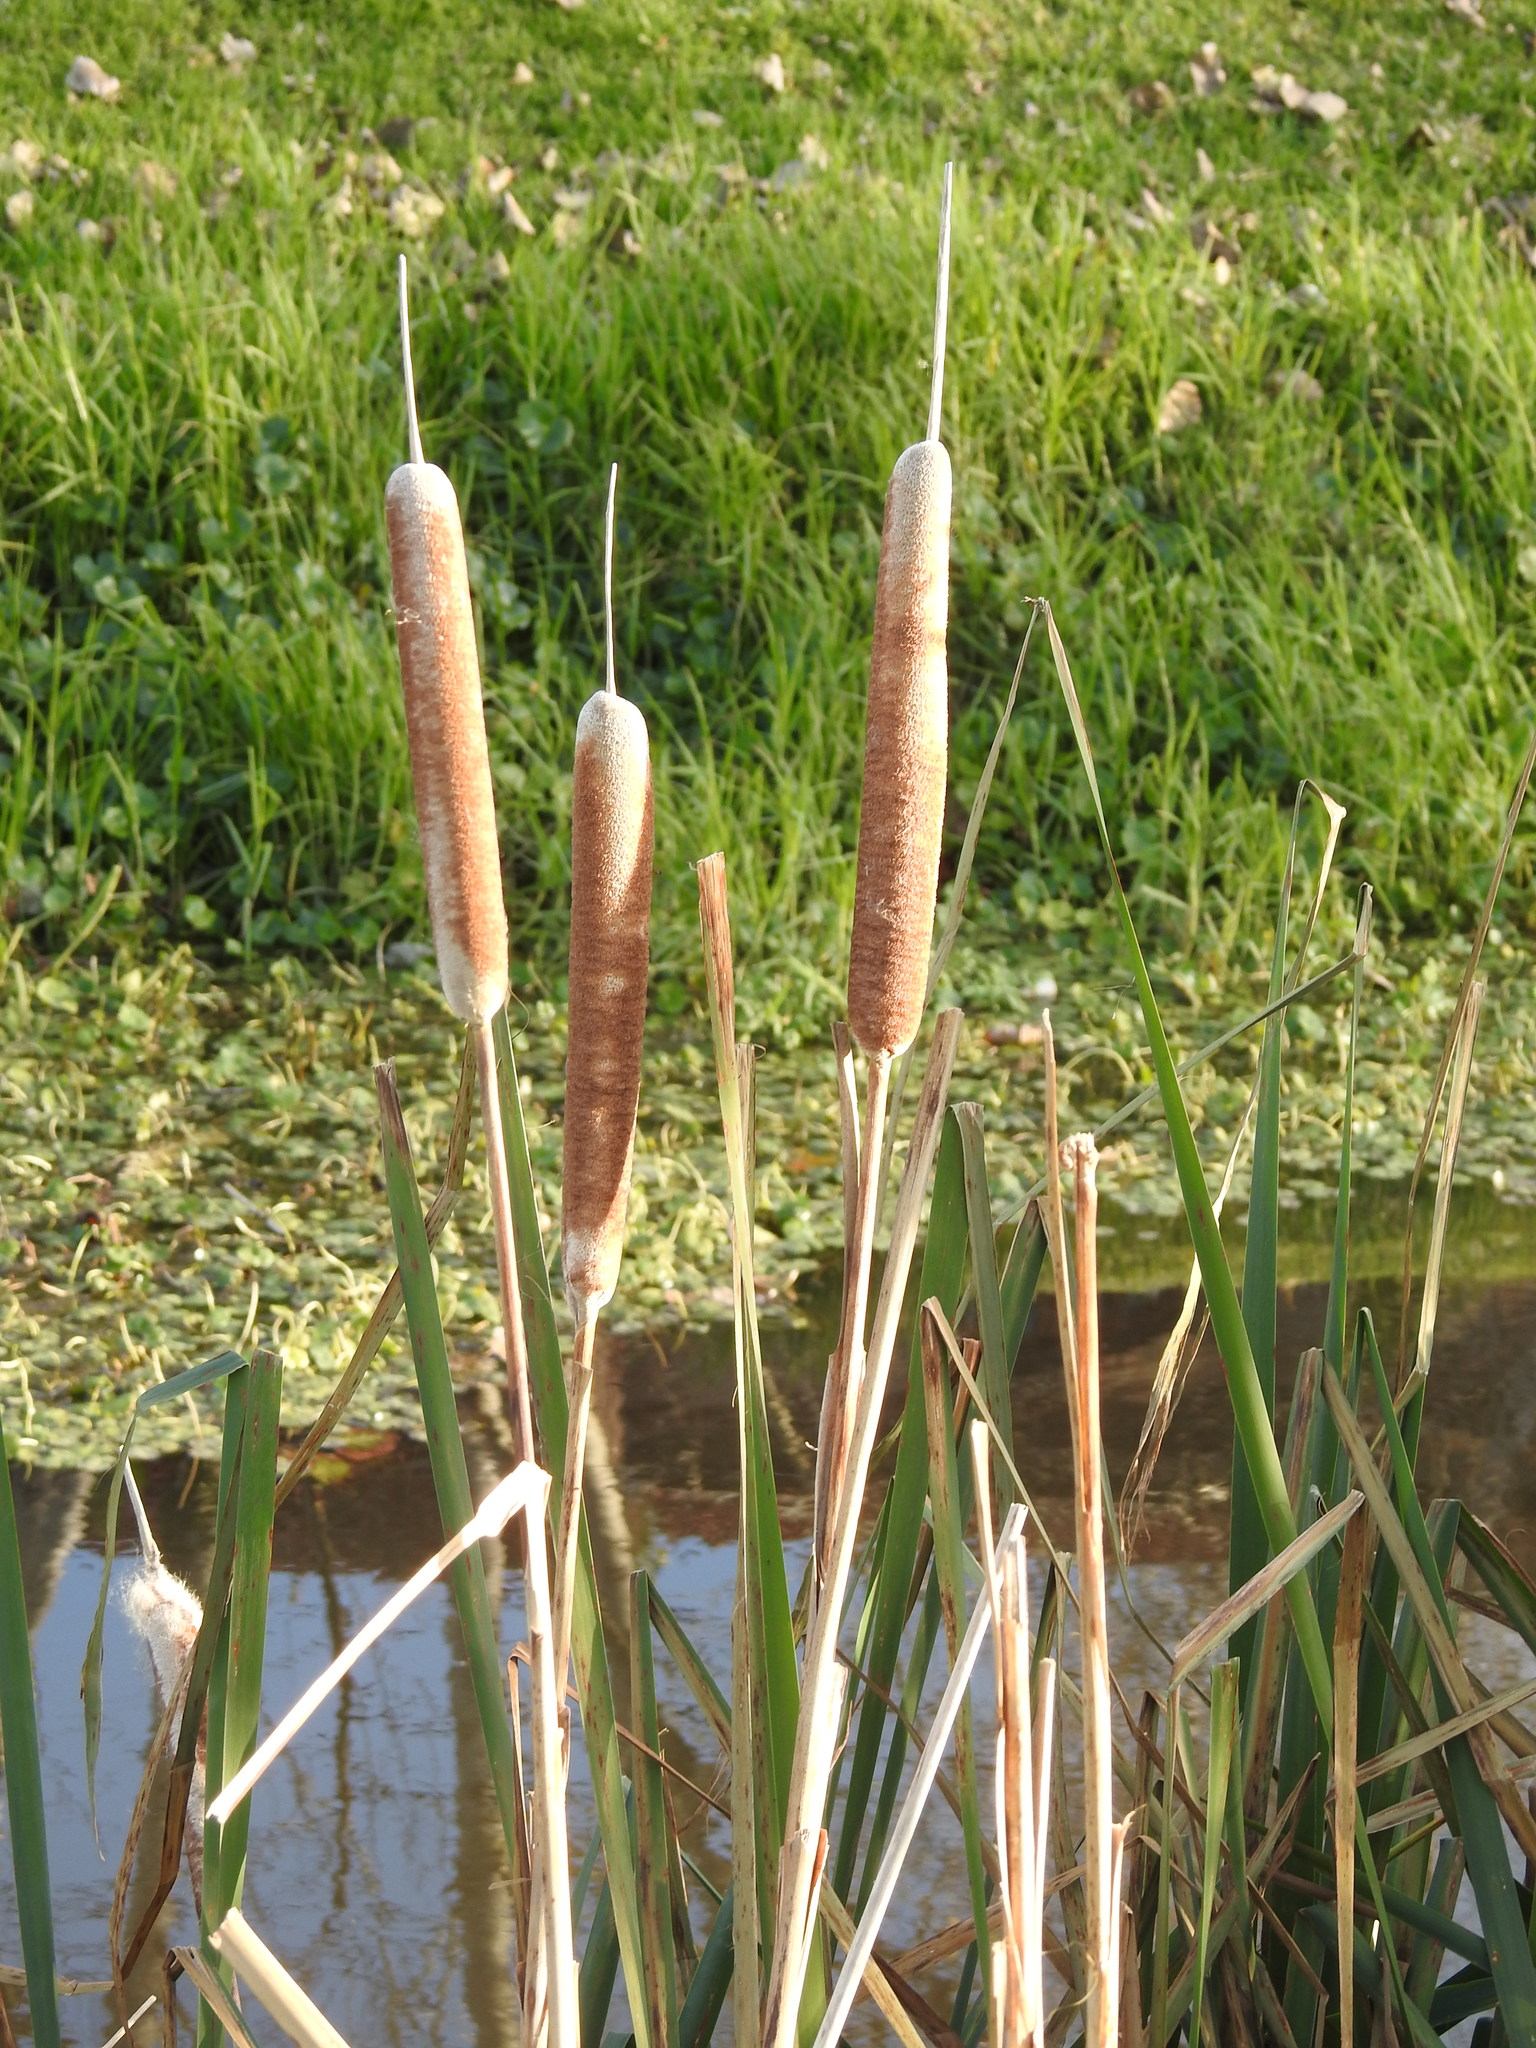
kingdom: Plantae
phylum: Tracheophyta
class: Liliopsida
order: Poales
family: Typhaceae
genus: Typha
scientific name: Typha latifolia
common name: Broadleaf cattail
